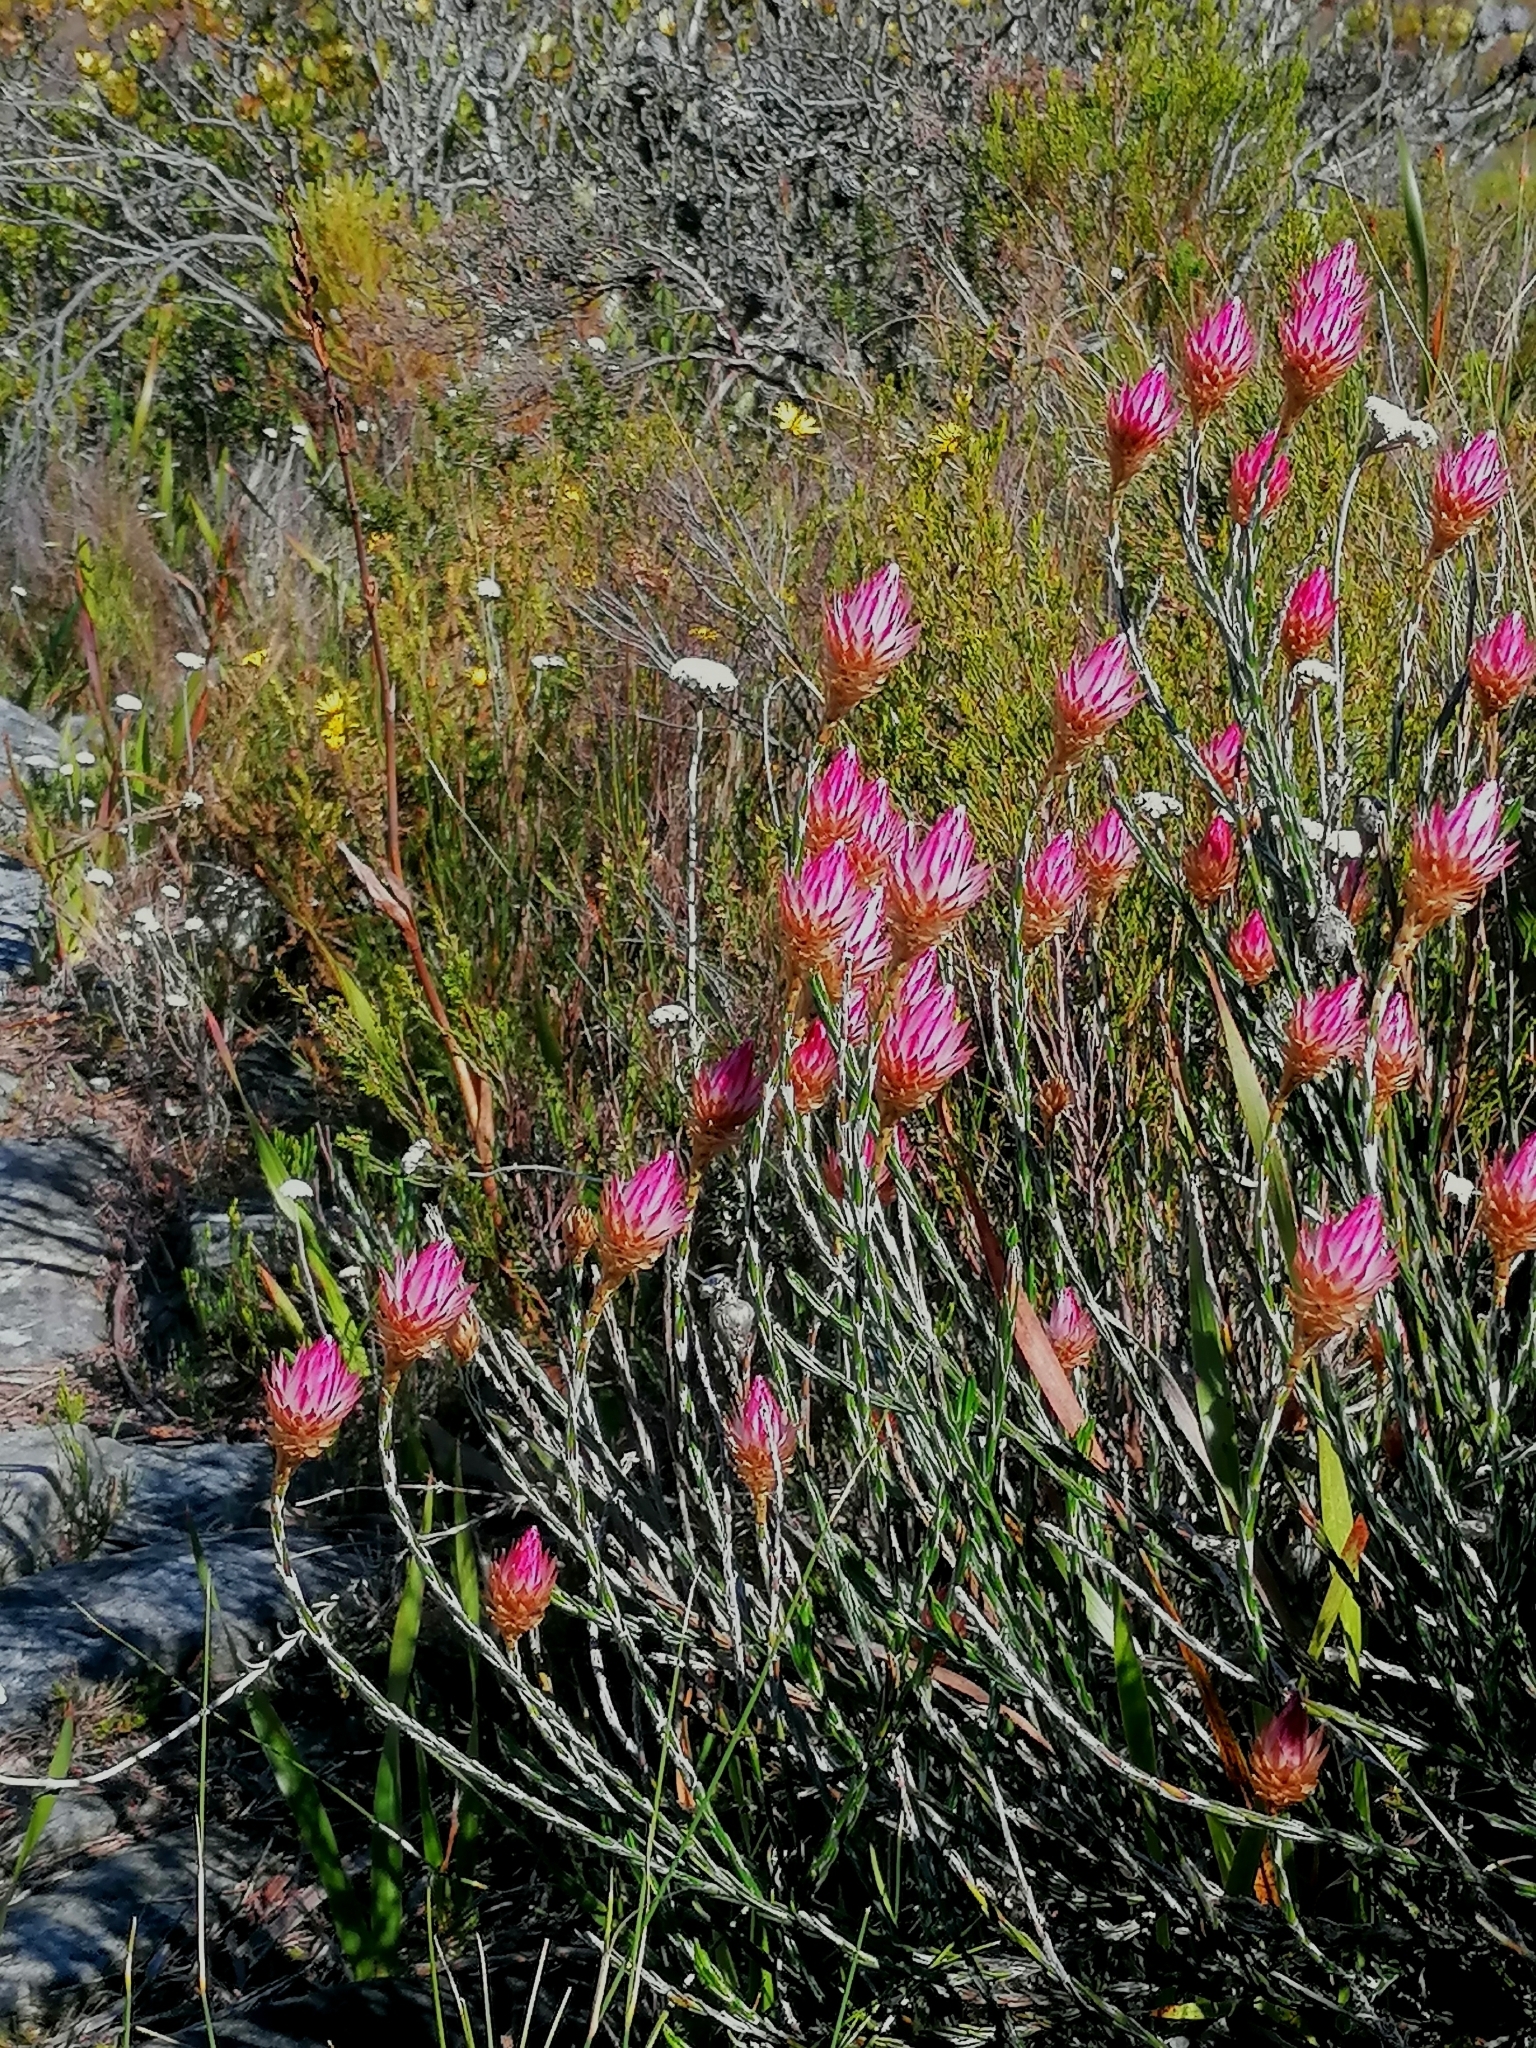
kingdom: Plantae
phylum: Tracheophyta
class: Magnoliopsida
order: Asterales
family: Asteraceae
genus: Edmondia
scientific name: Edmondia pinifolia
